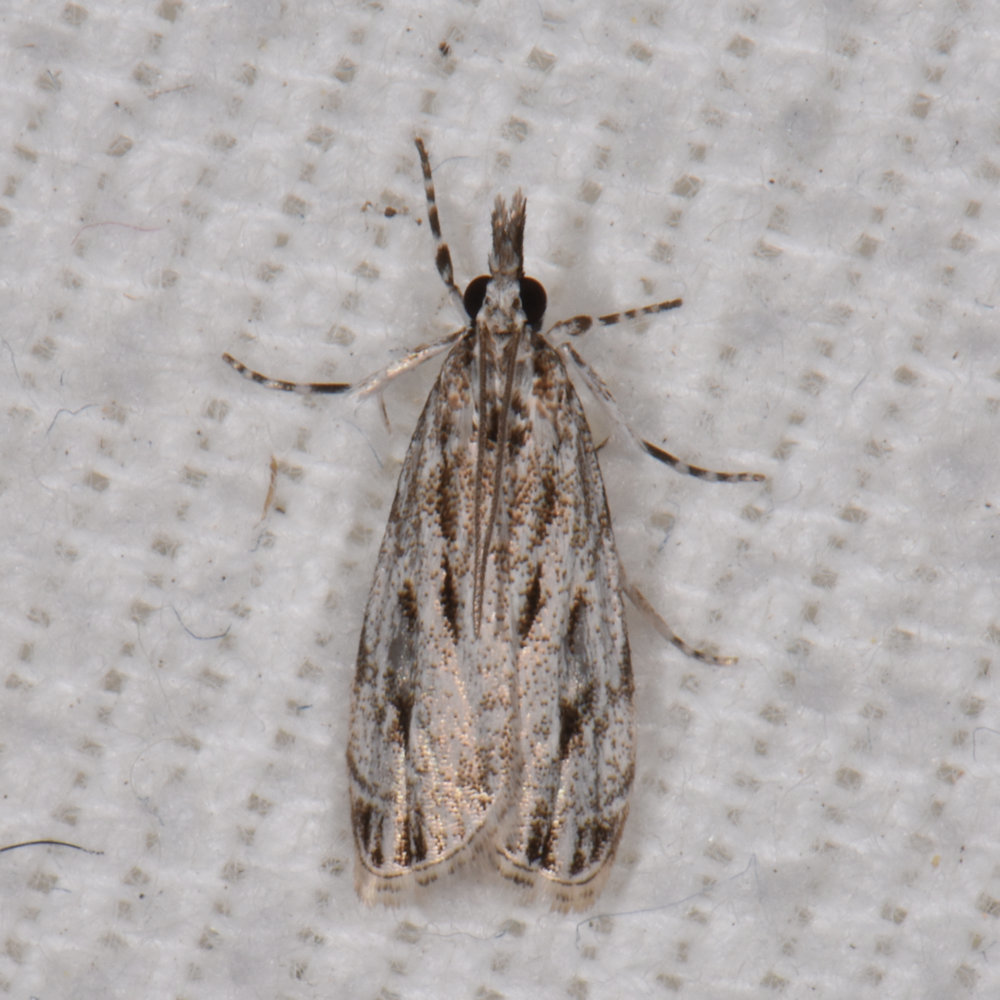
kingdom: Animalia
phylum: Arthropoda
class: Insecta
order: Lepidoptera
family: Crambidae
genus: Eudonia
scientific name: Eudonia strigalis
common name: Striped eudonia moth
